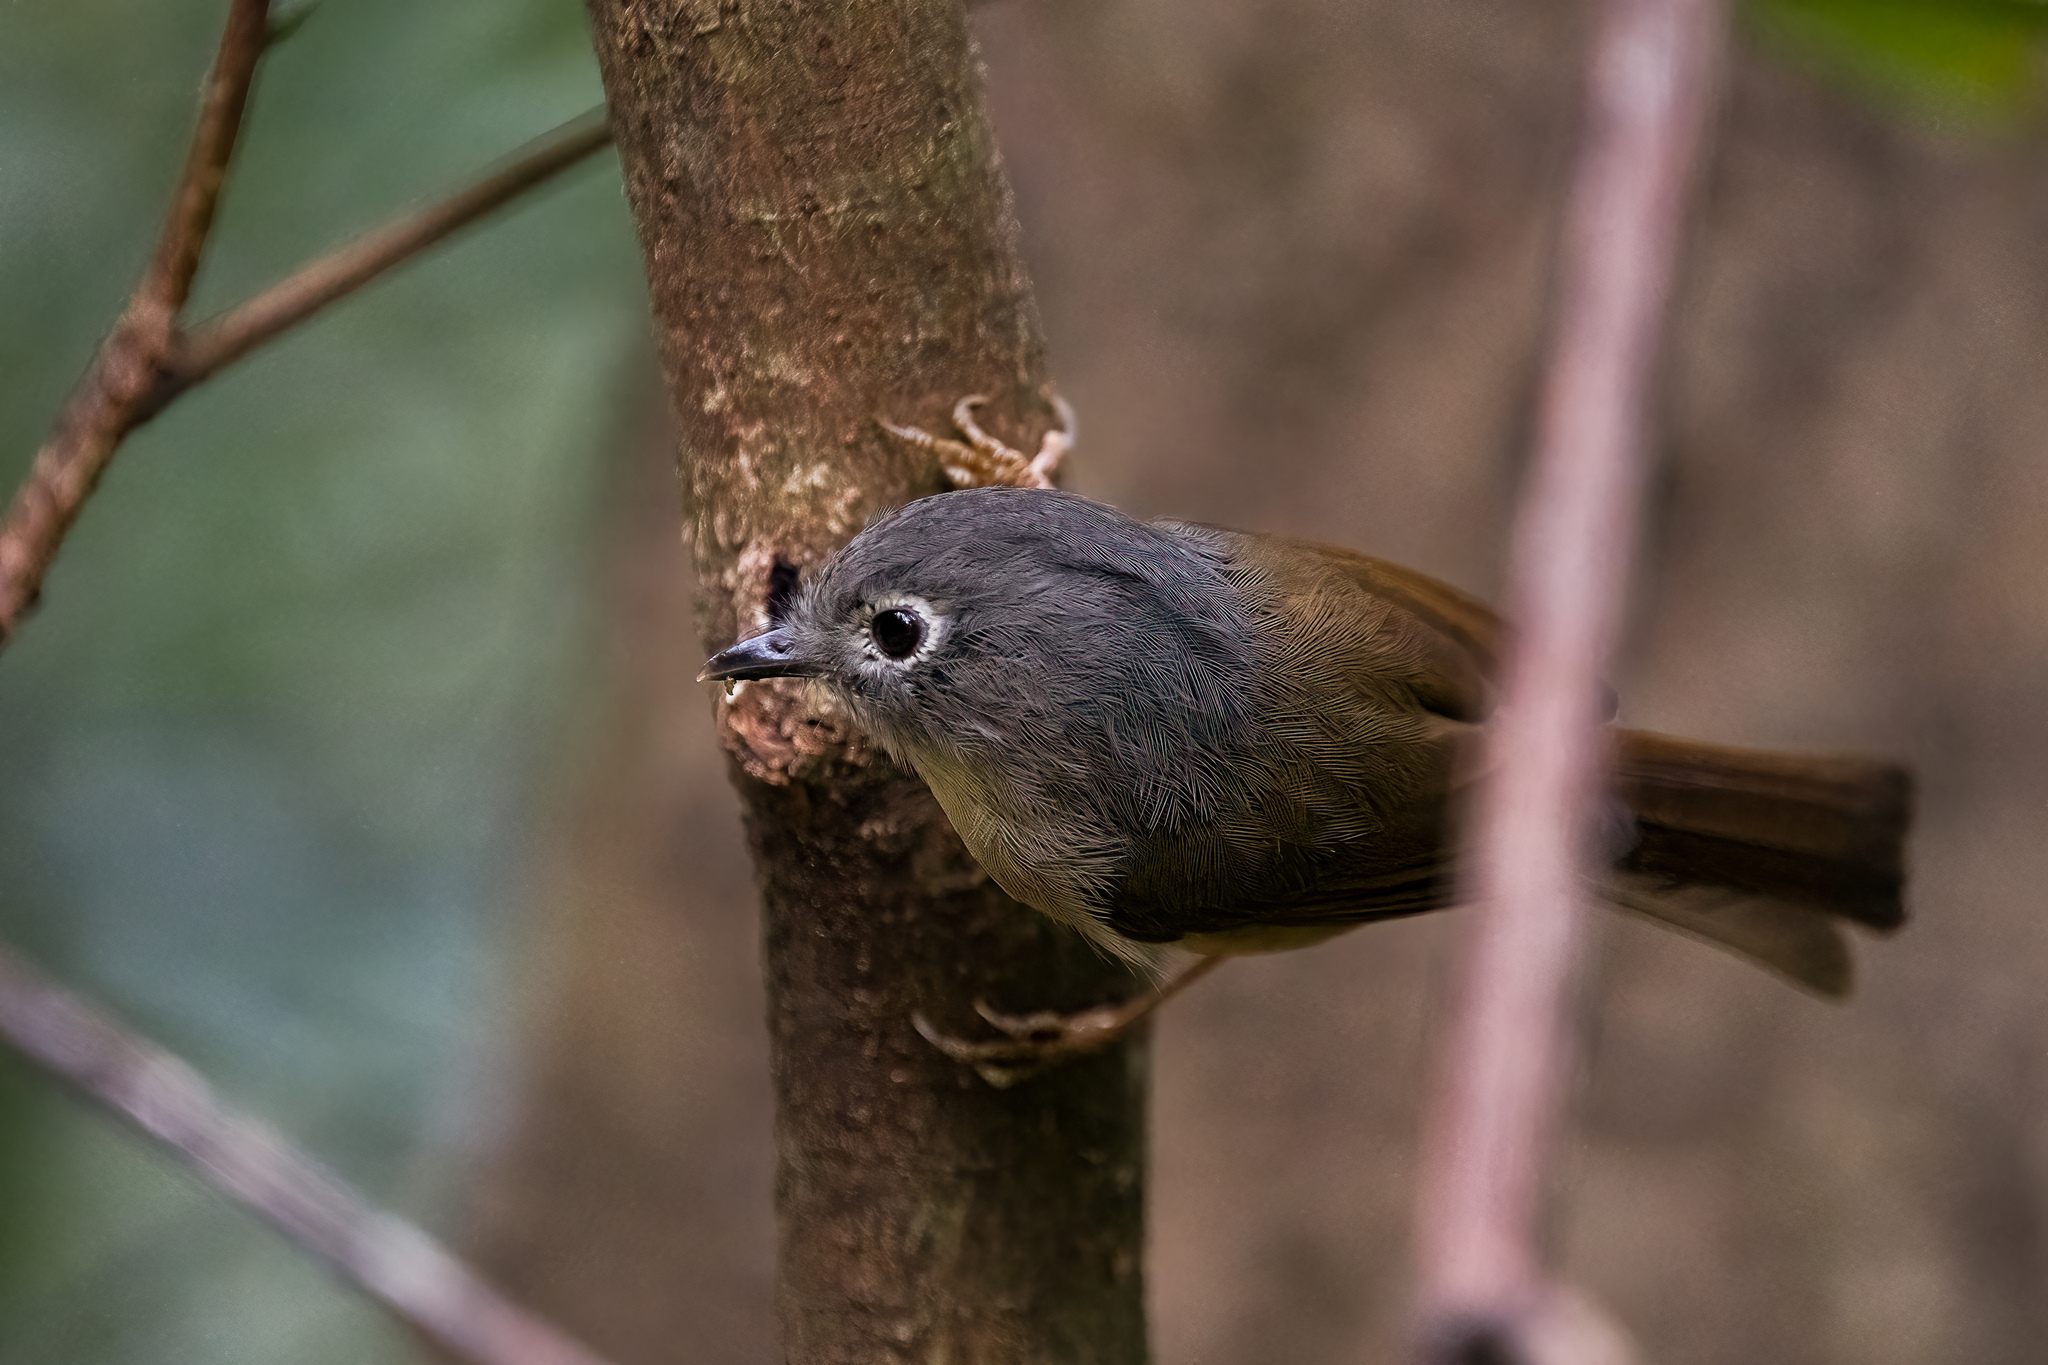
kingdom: Animalia
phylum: Chordata
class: Aves
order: Passeriformes
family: Pellorneidae
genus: Alcippe
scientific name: Alcippe hueti
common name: Huet's fulvetta
